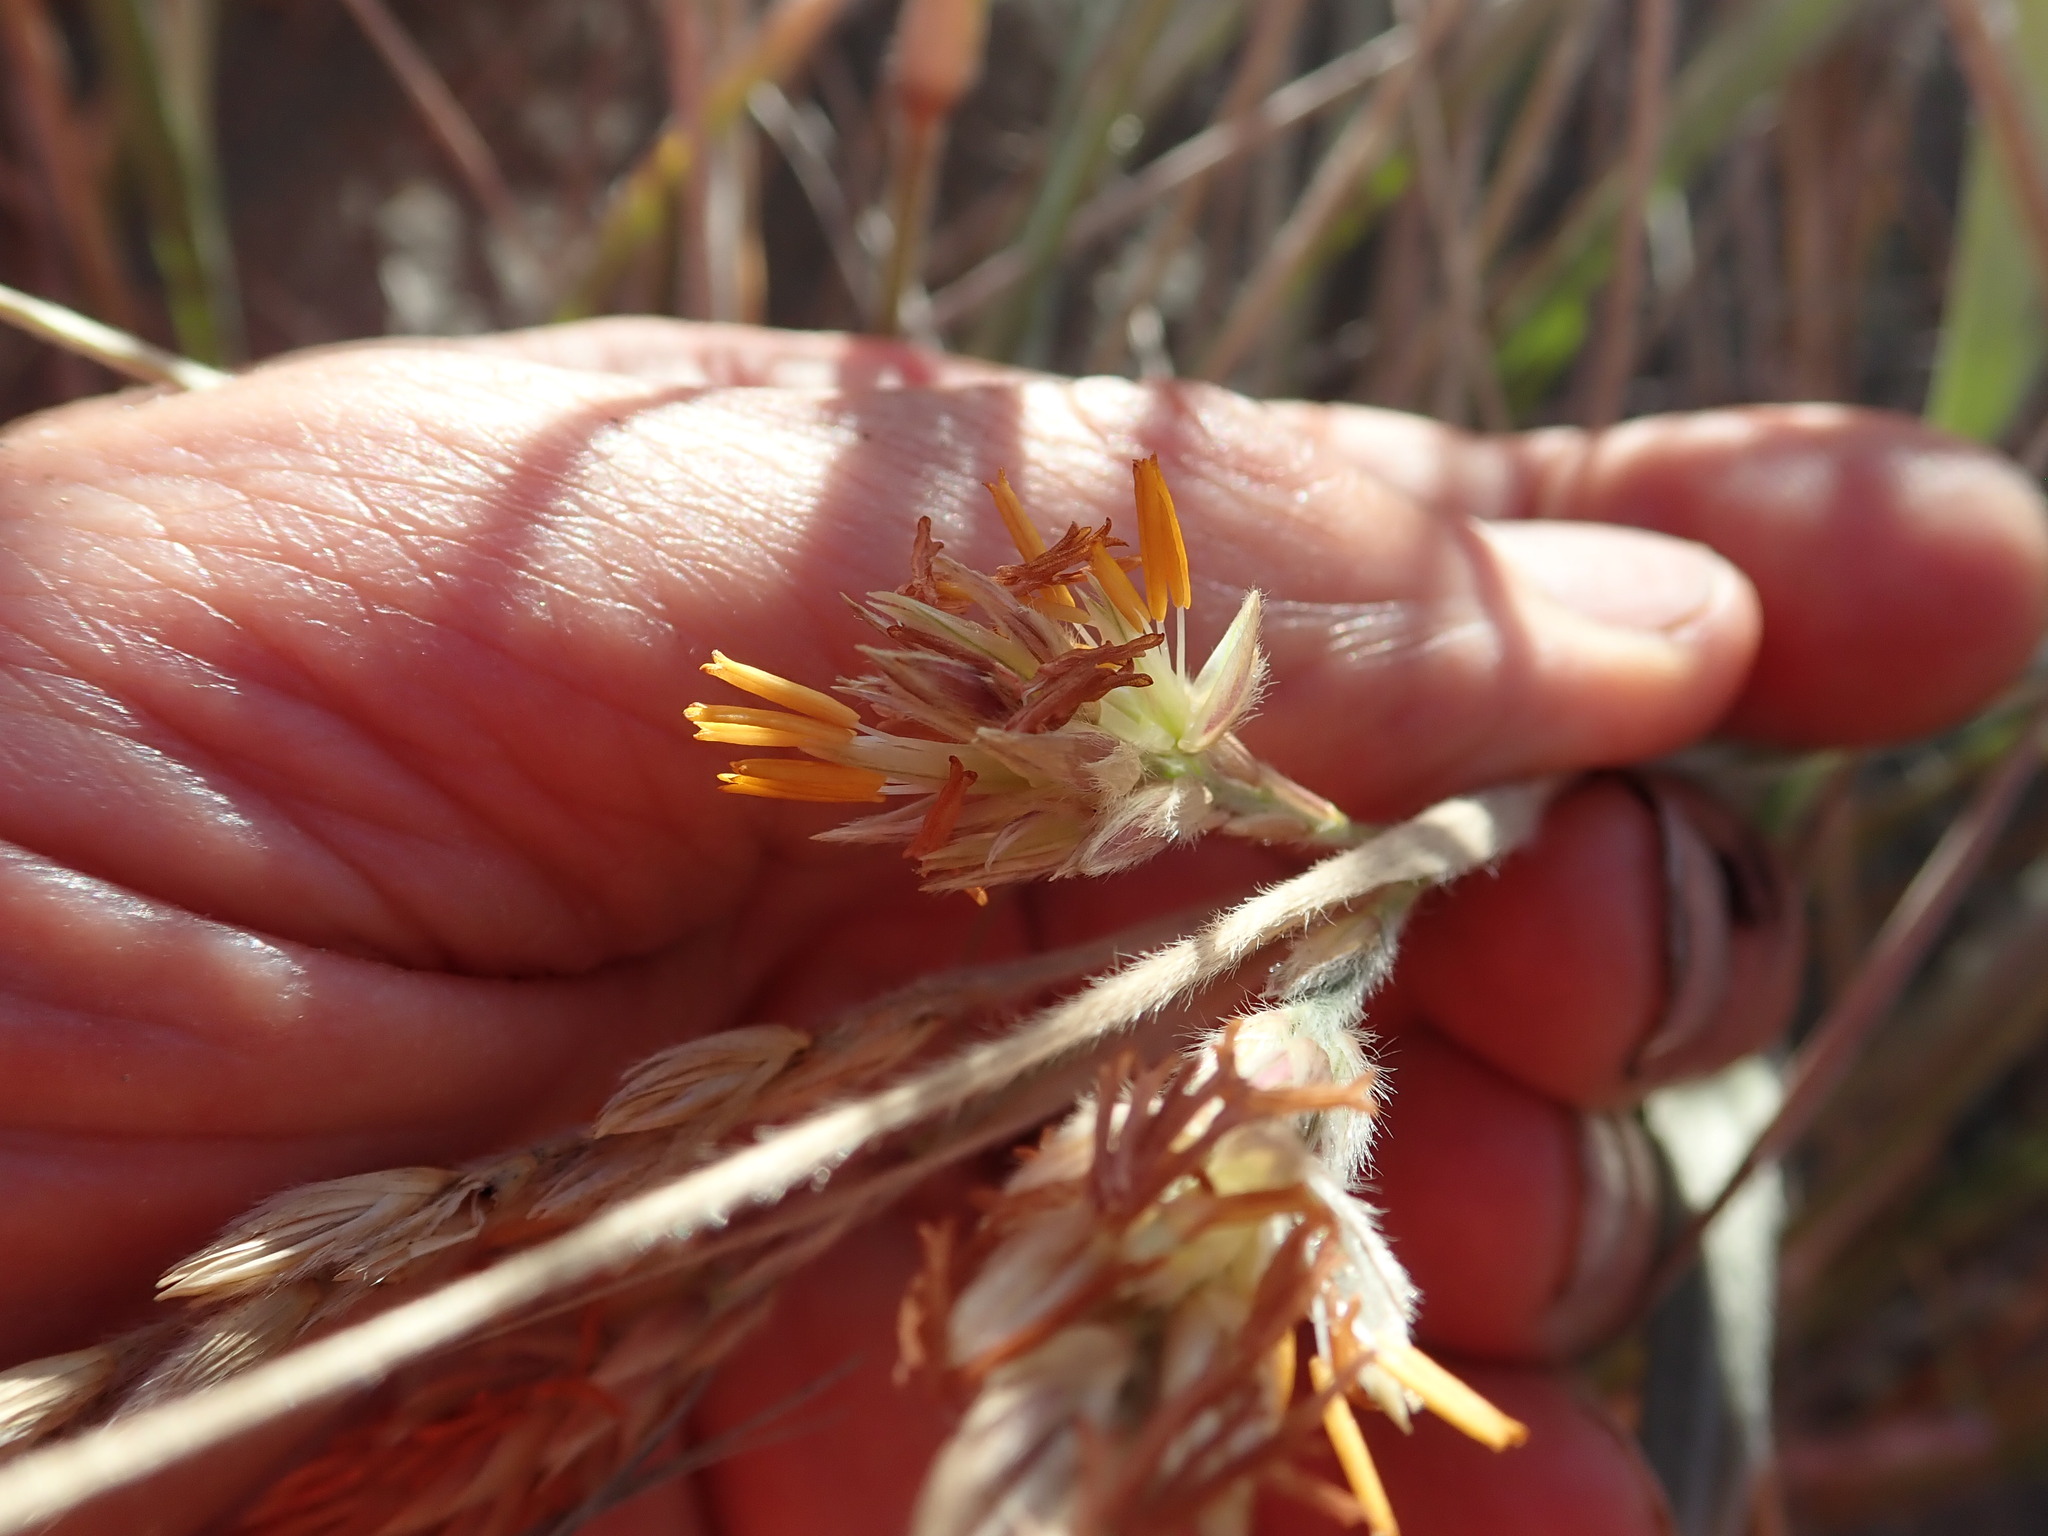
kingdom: Plantae
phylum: Tracheophyta
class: Liliopsida
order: Poales
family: Poaceae
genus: Spinifex
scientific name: Spinifex sericeus
